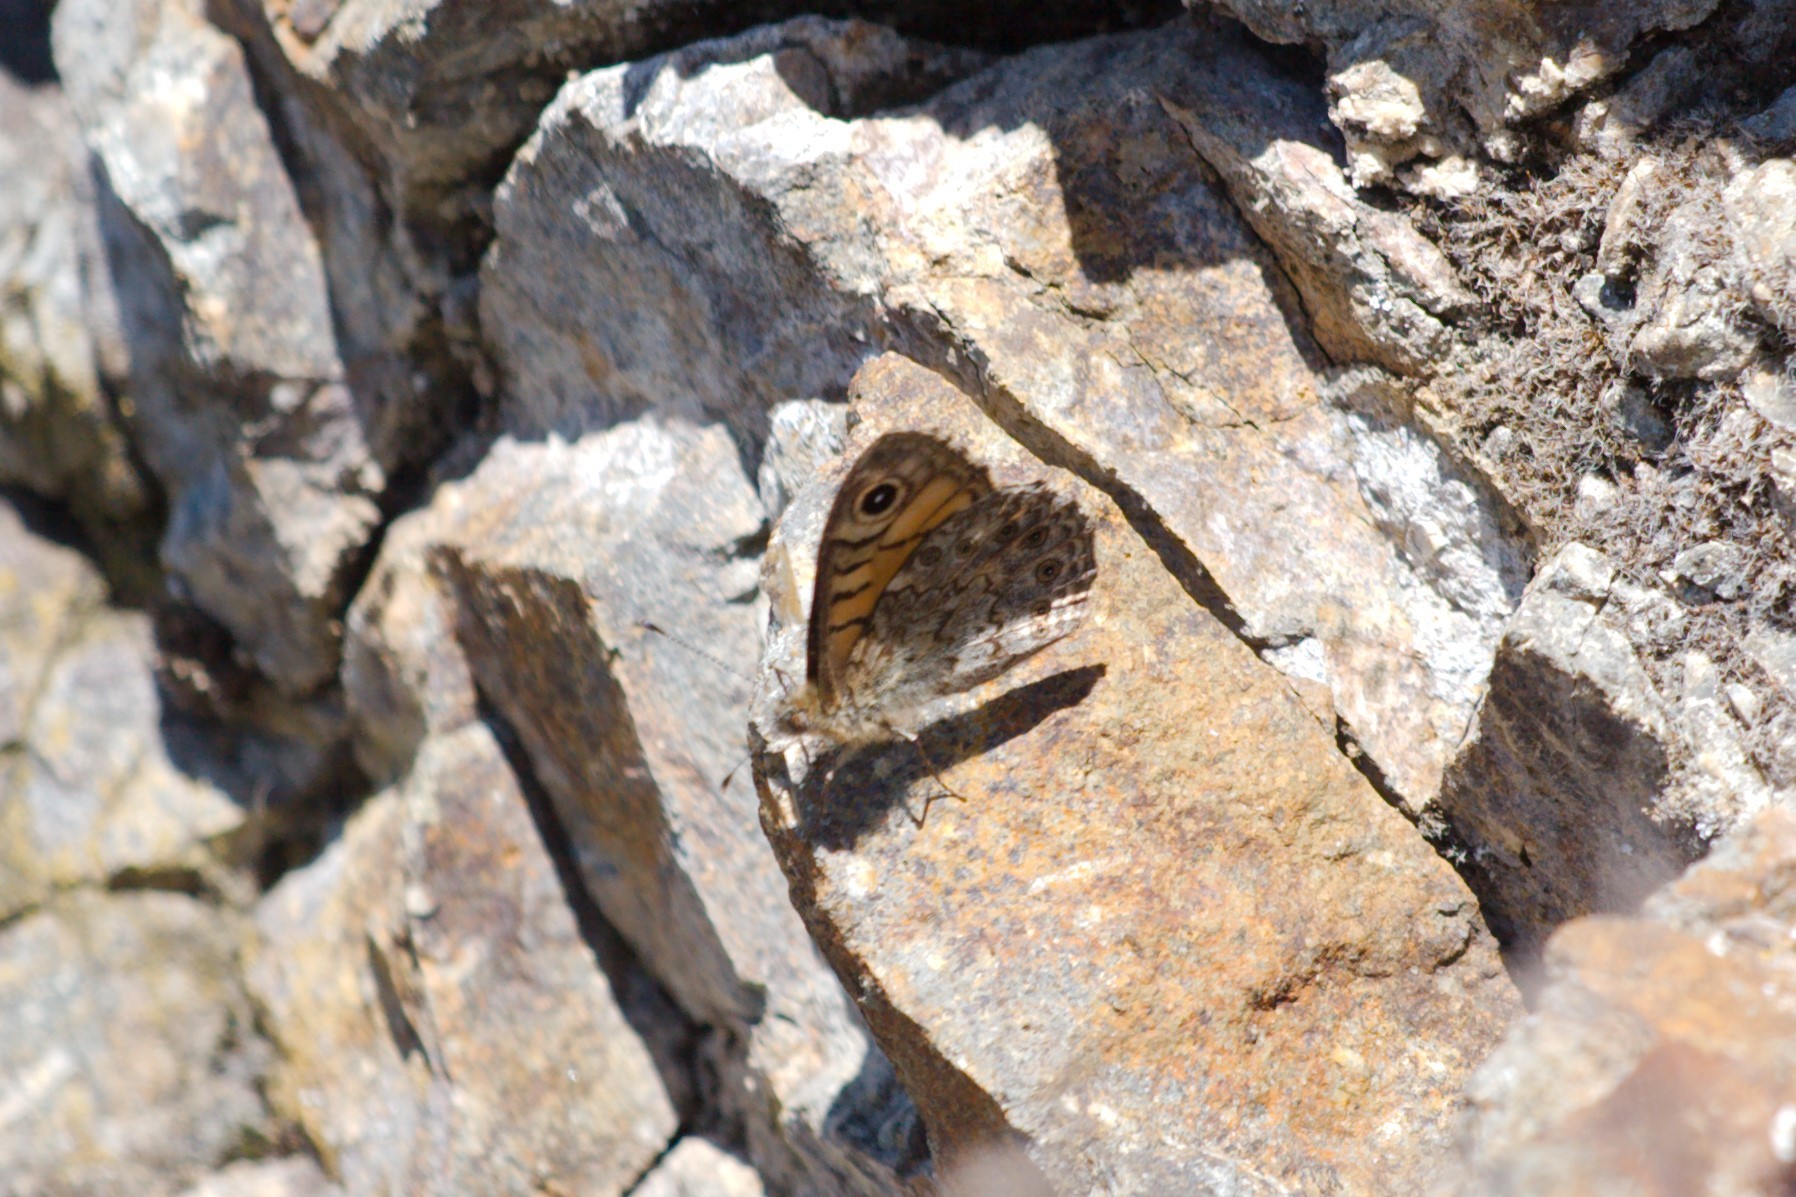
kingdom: Animalia
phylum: Arthropoda
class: Insecta
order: Lepidoptera
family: Nymphalidae
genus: Pararge
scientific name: Pararge Lasiommata megera
